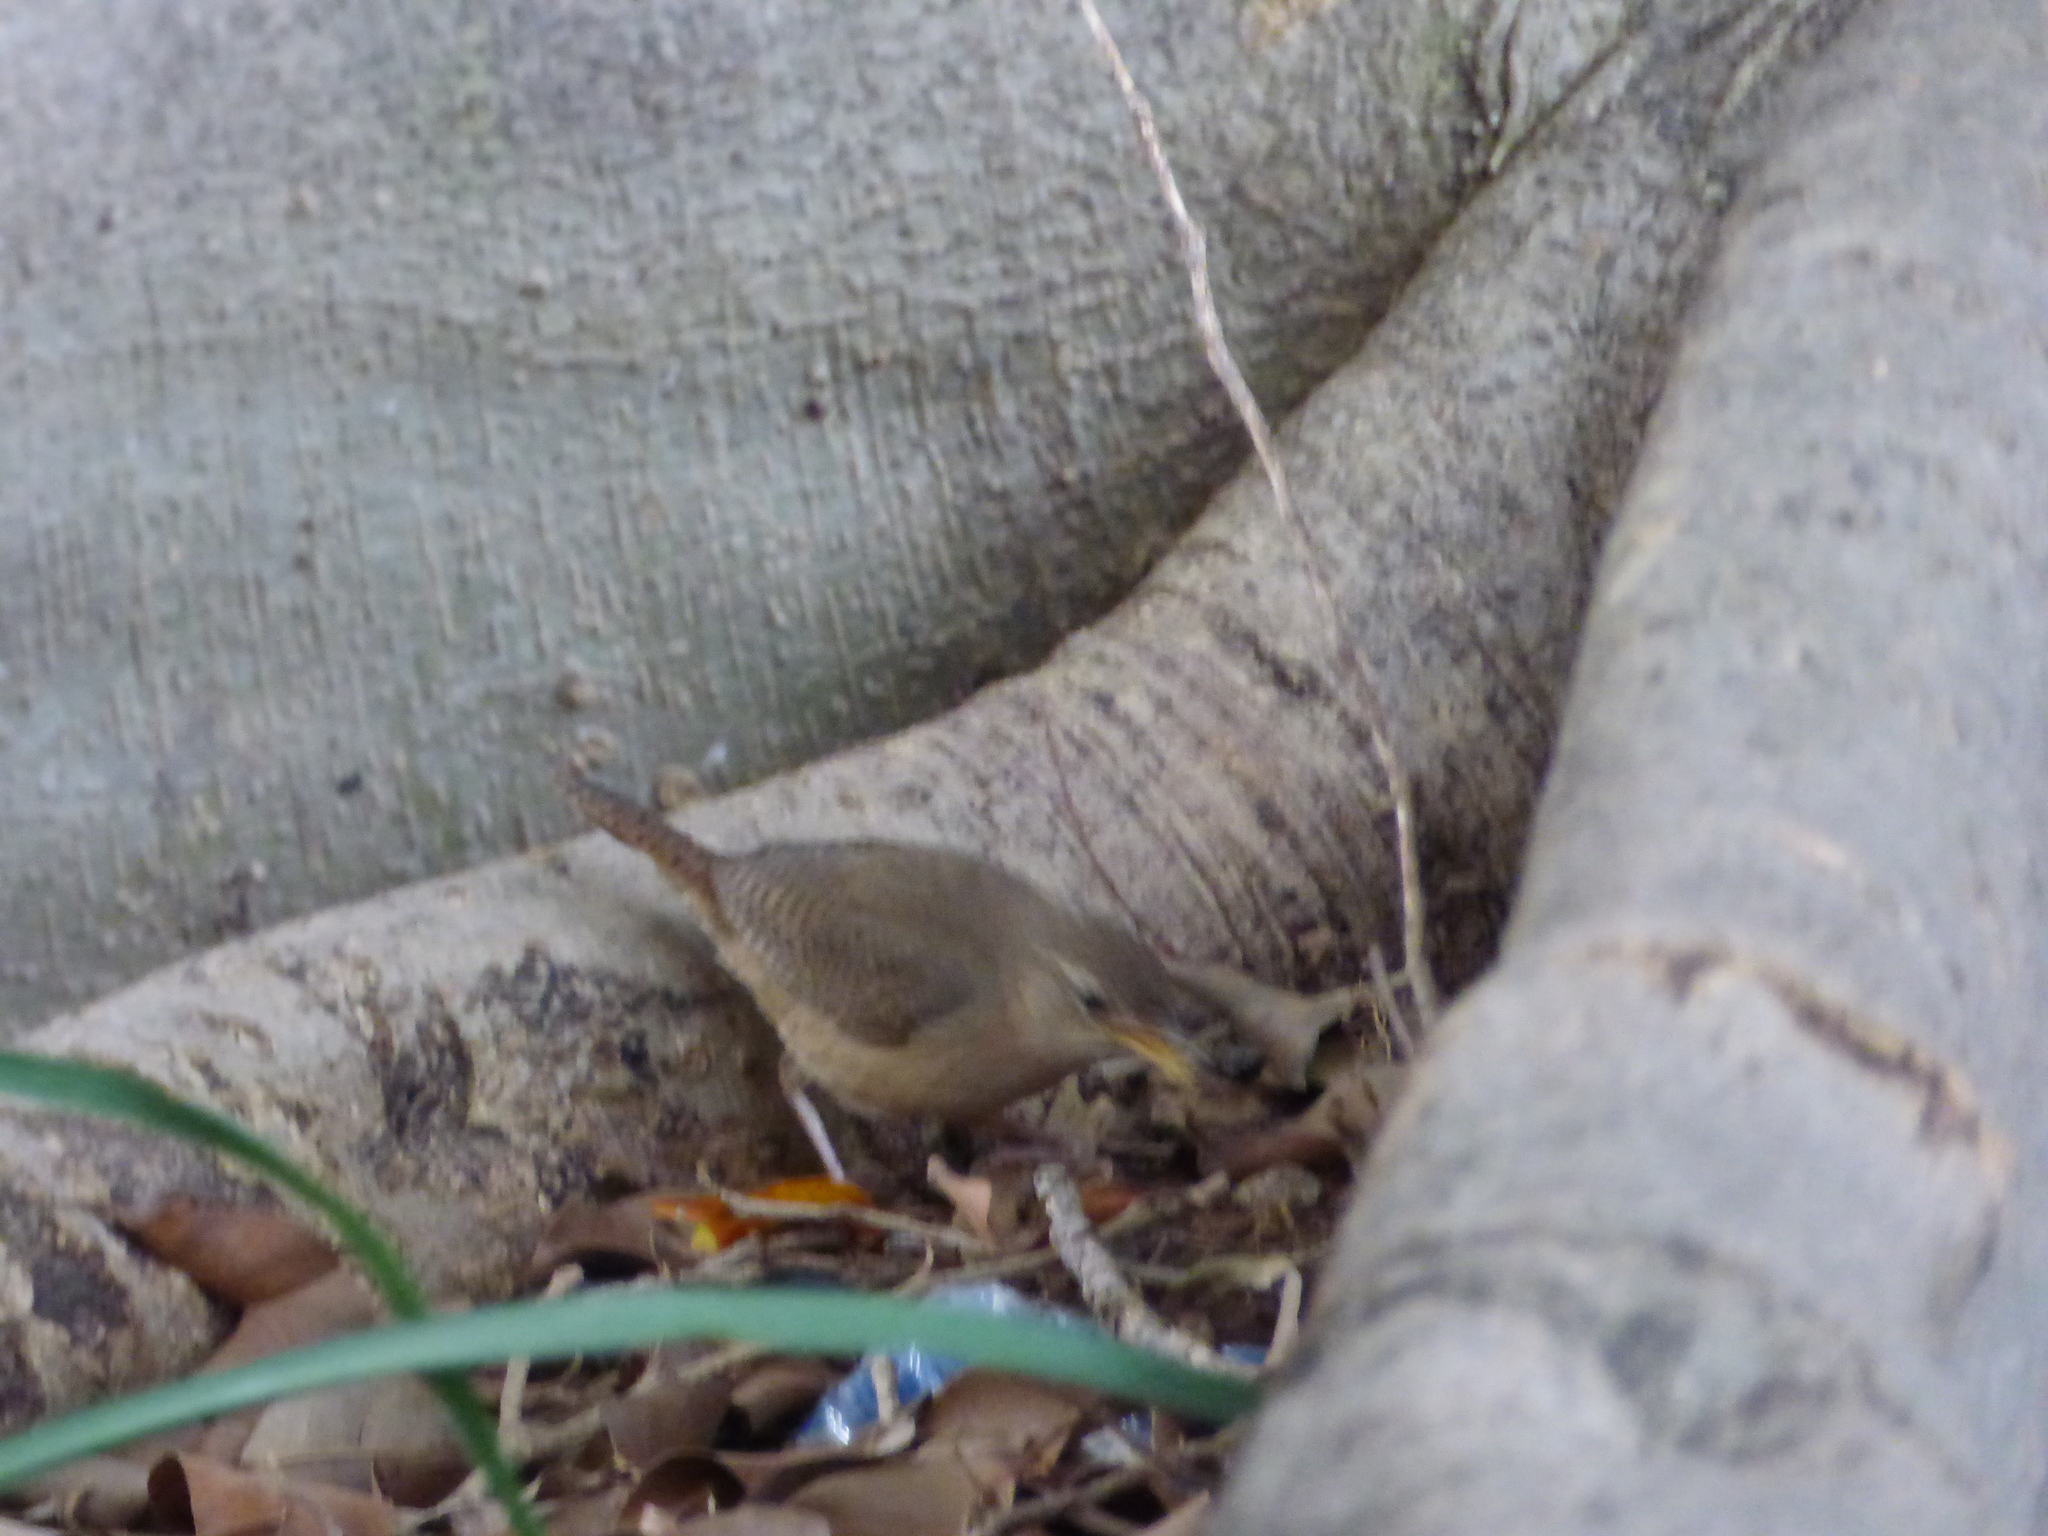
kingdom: Animalia
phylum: Chordata
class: Aves
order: Passeriformes
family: Troglodytidae
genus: Troglodytes
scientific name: Troglodytes aedon
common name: House wren
